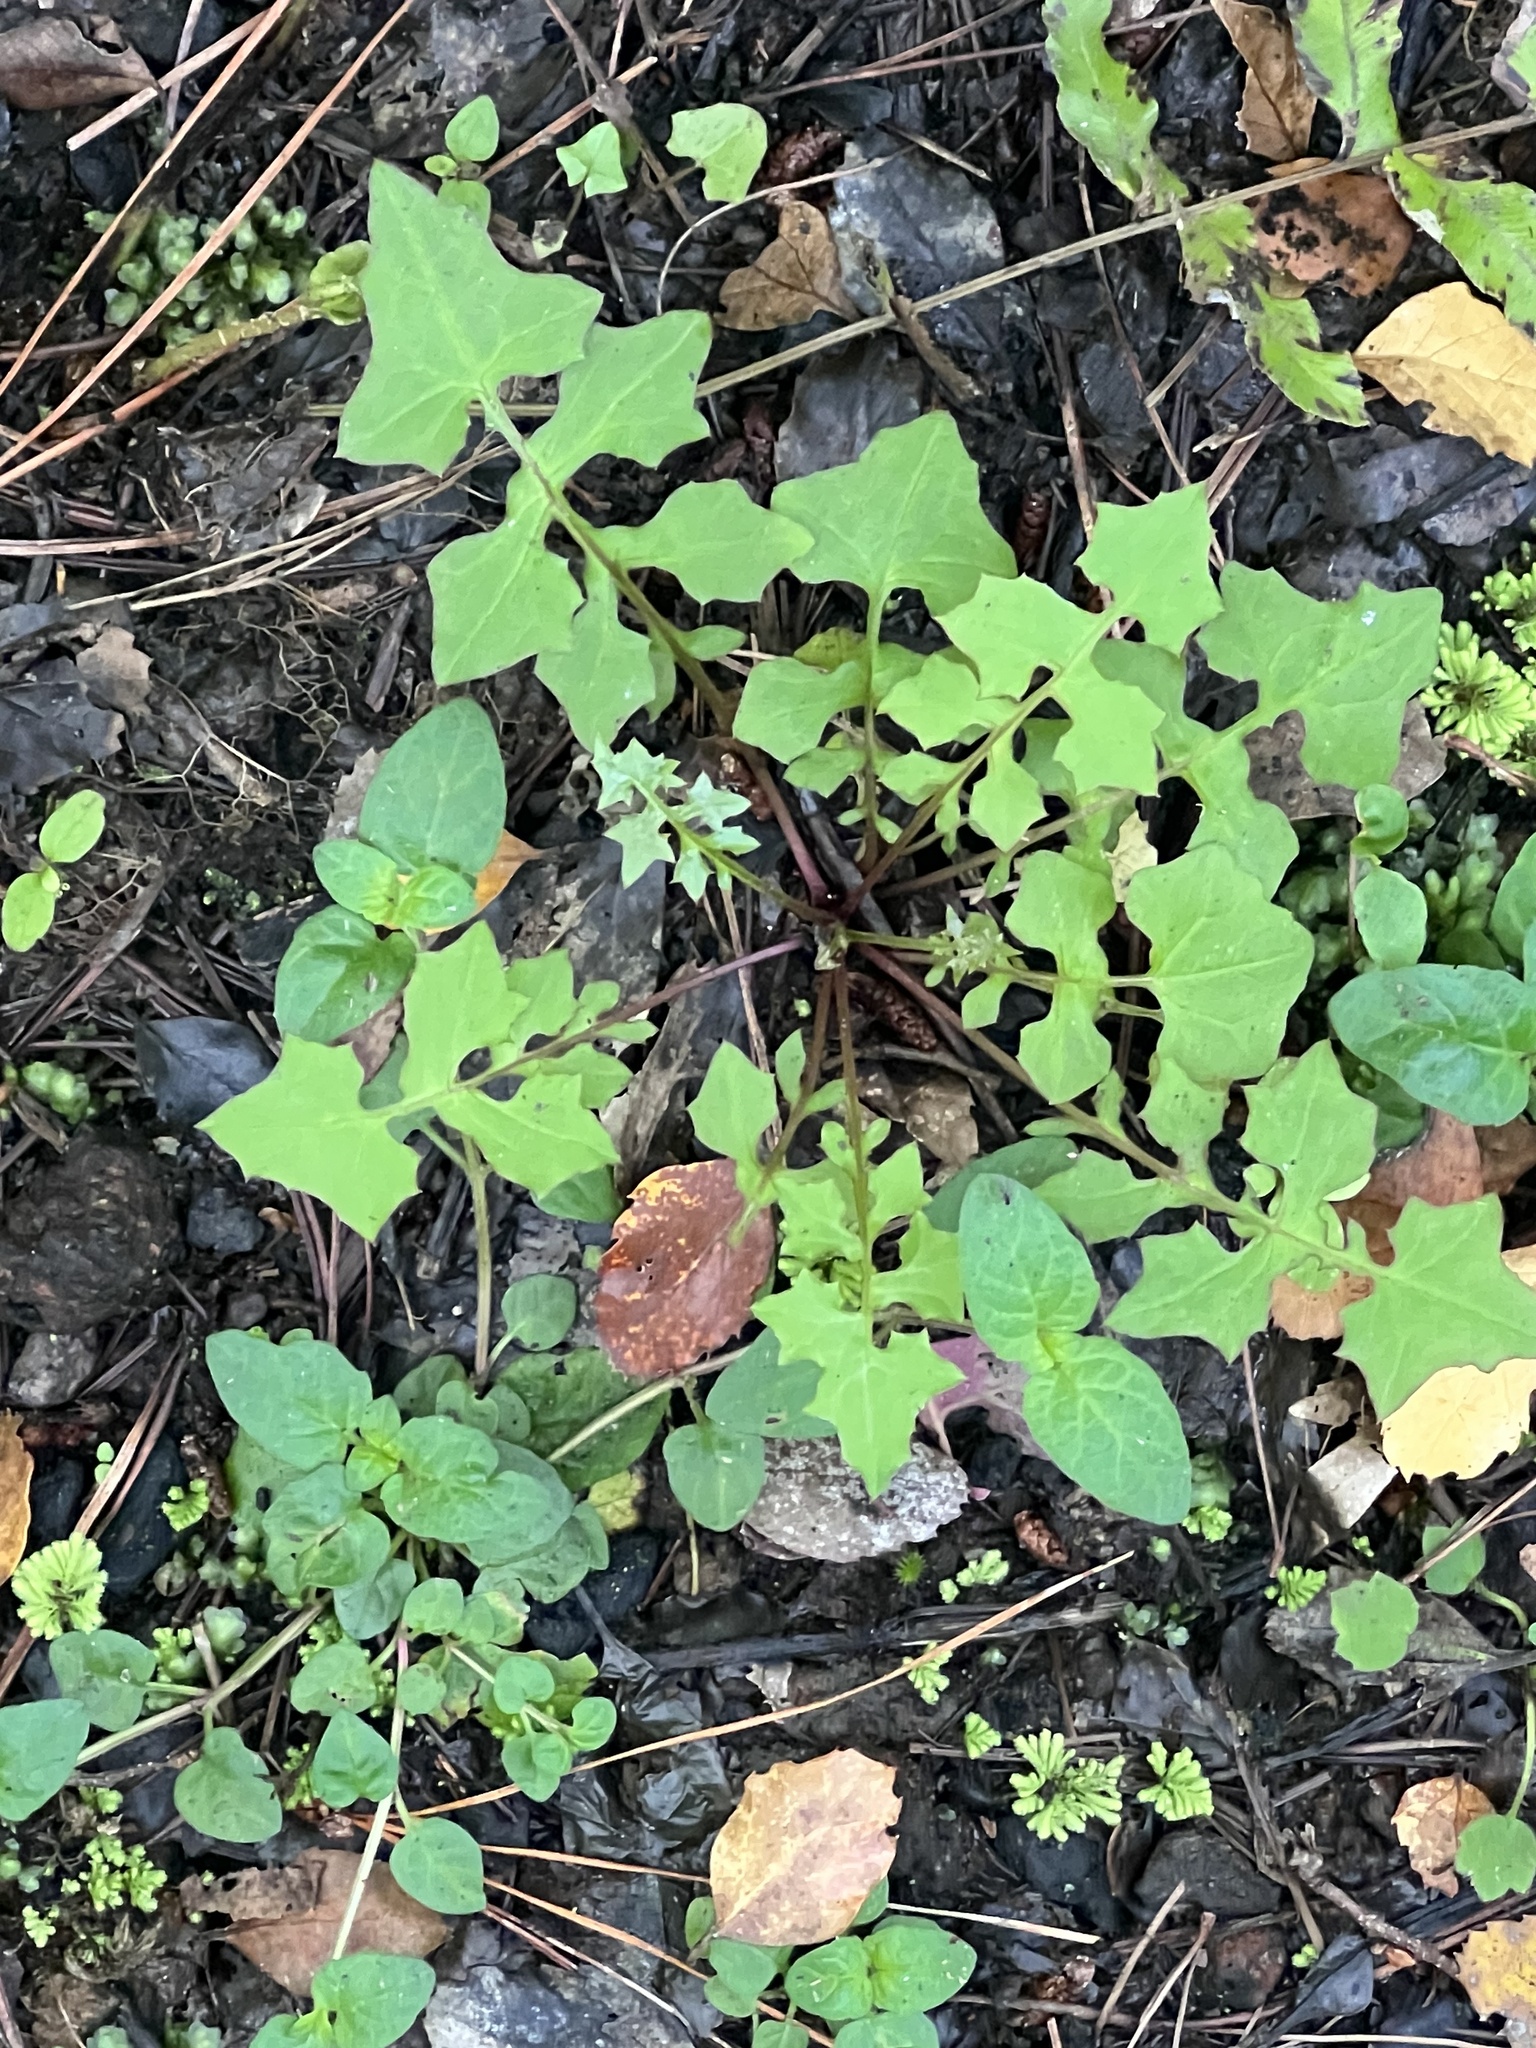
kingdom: Plantae
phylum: Tracheophyta
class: Magnoliopsida
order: Asterales
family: Asteraceae
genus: Brachyglottis
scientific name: Brachyglottis repanda
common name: Hedge ragwort
